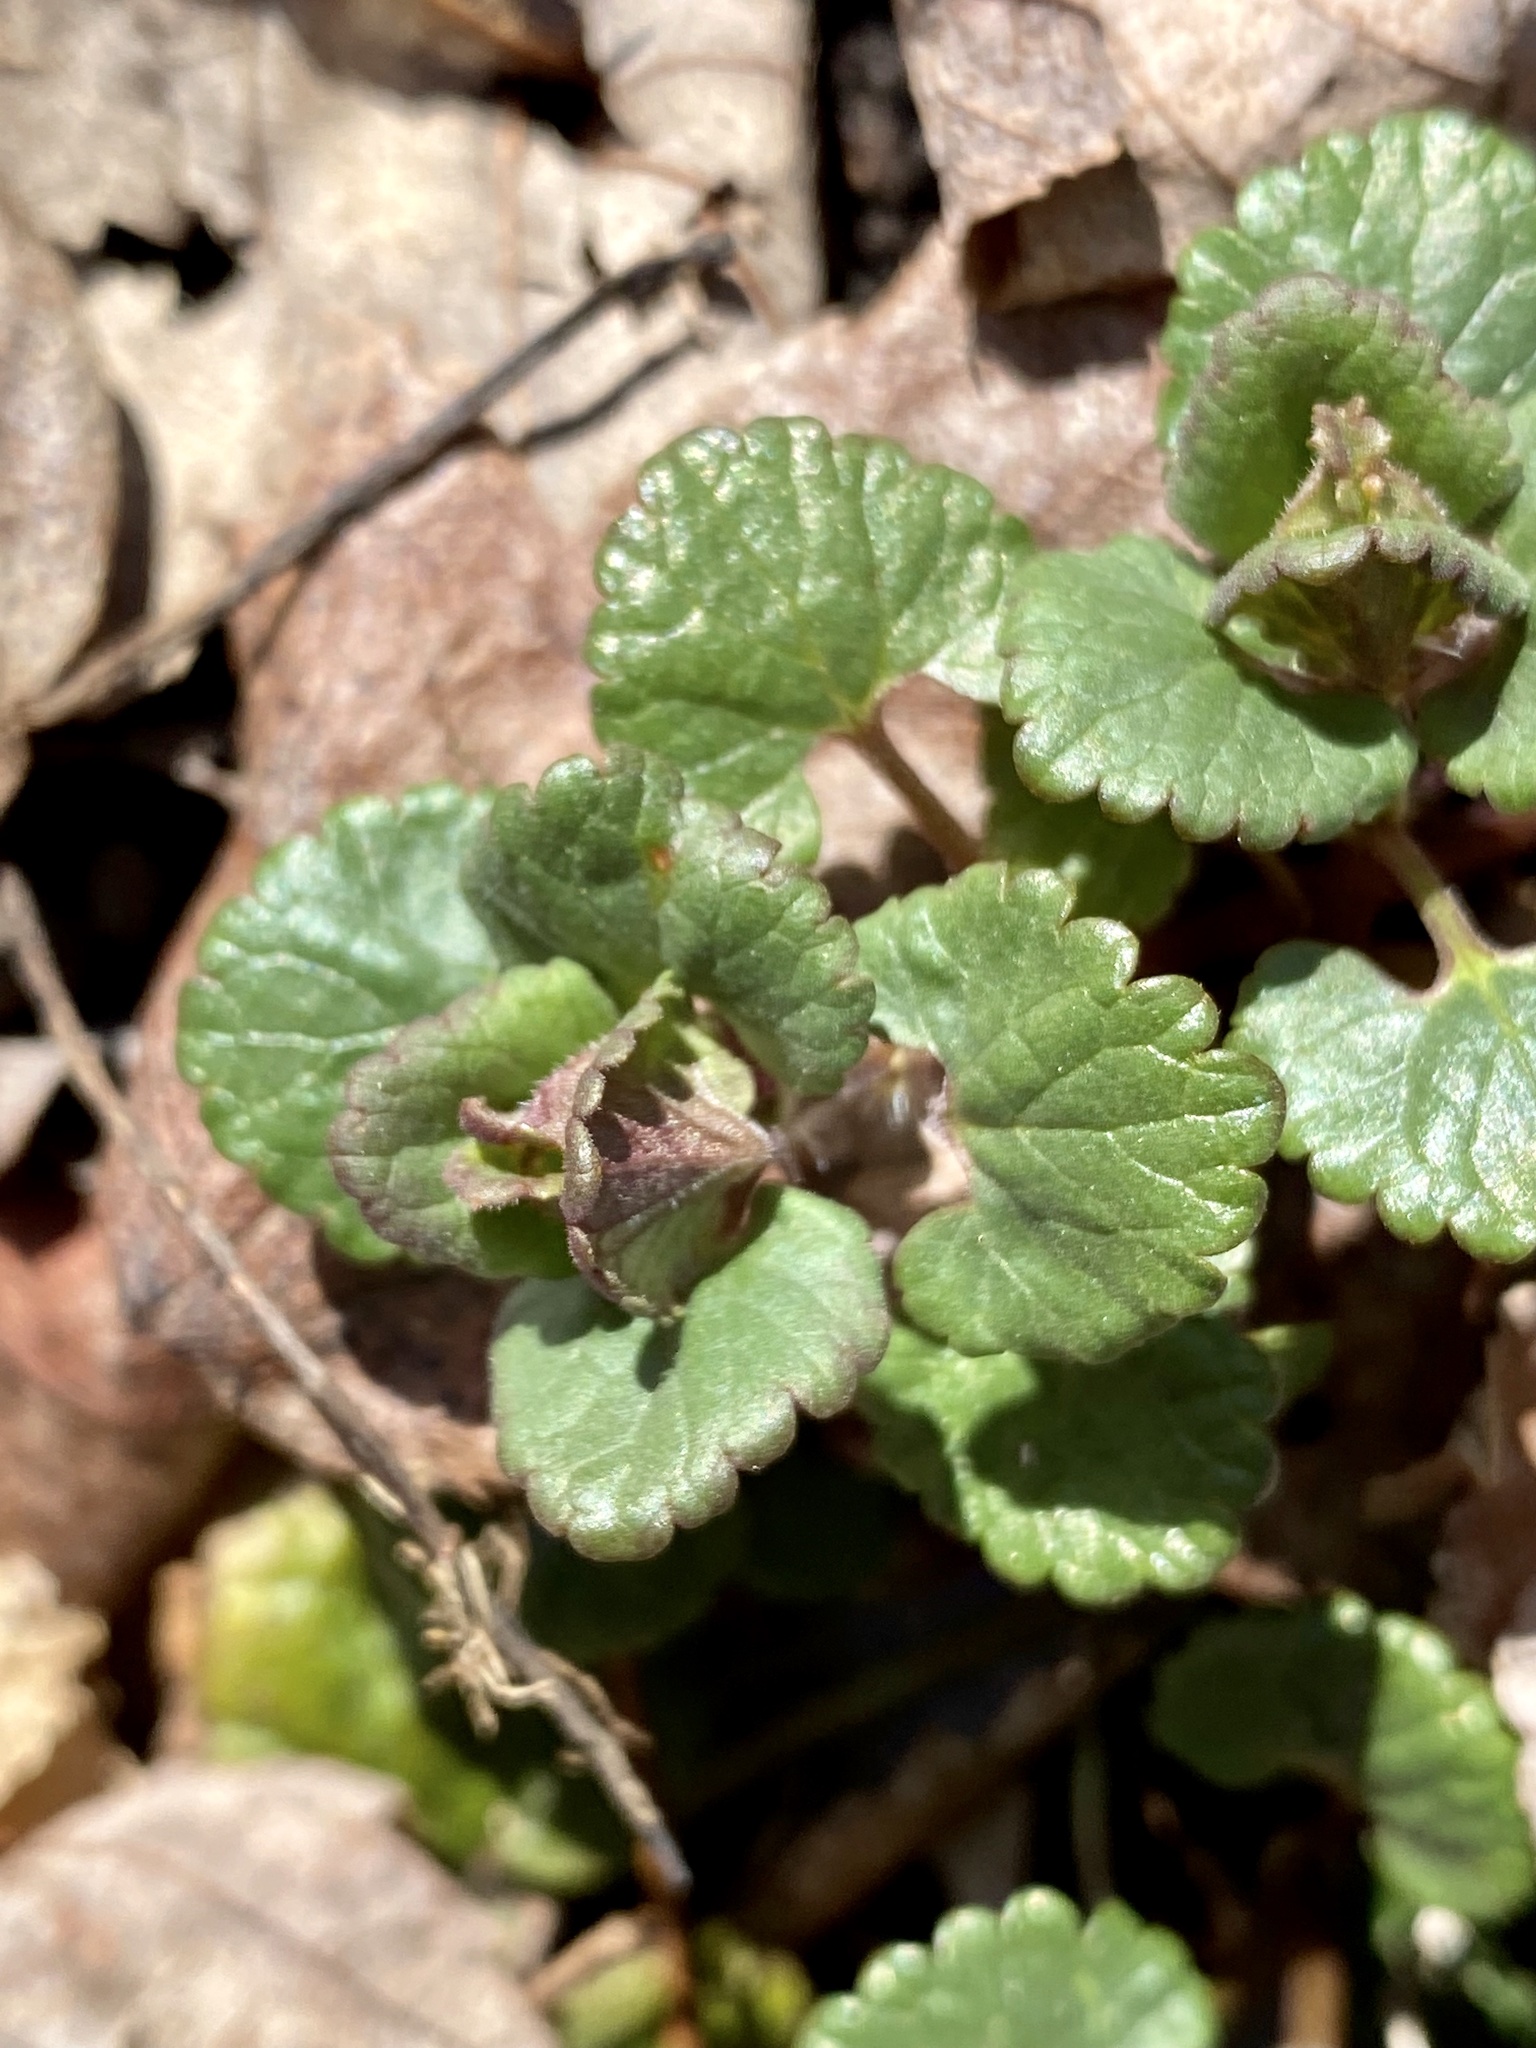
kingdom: Plantae
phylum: Tracheophyta
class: Magnoliopsida
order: Lamiales
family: Lamiaceae
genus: Glechoma
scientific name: Glechoma hederacea
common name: Ground ivy
